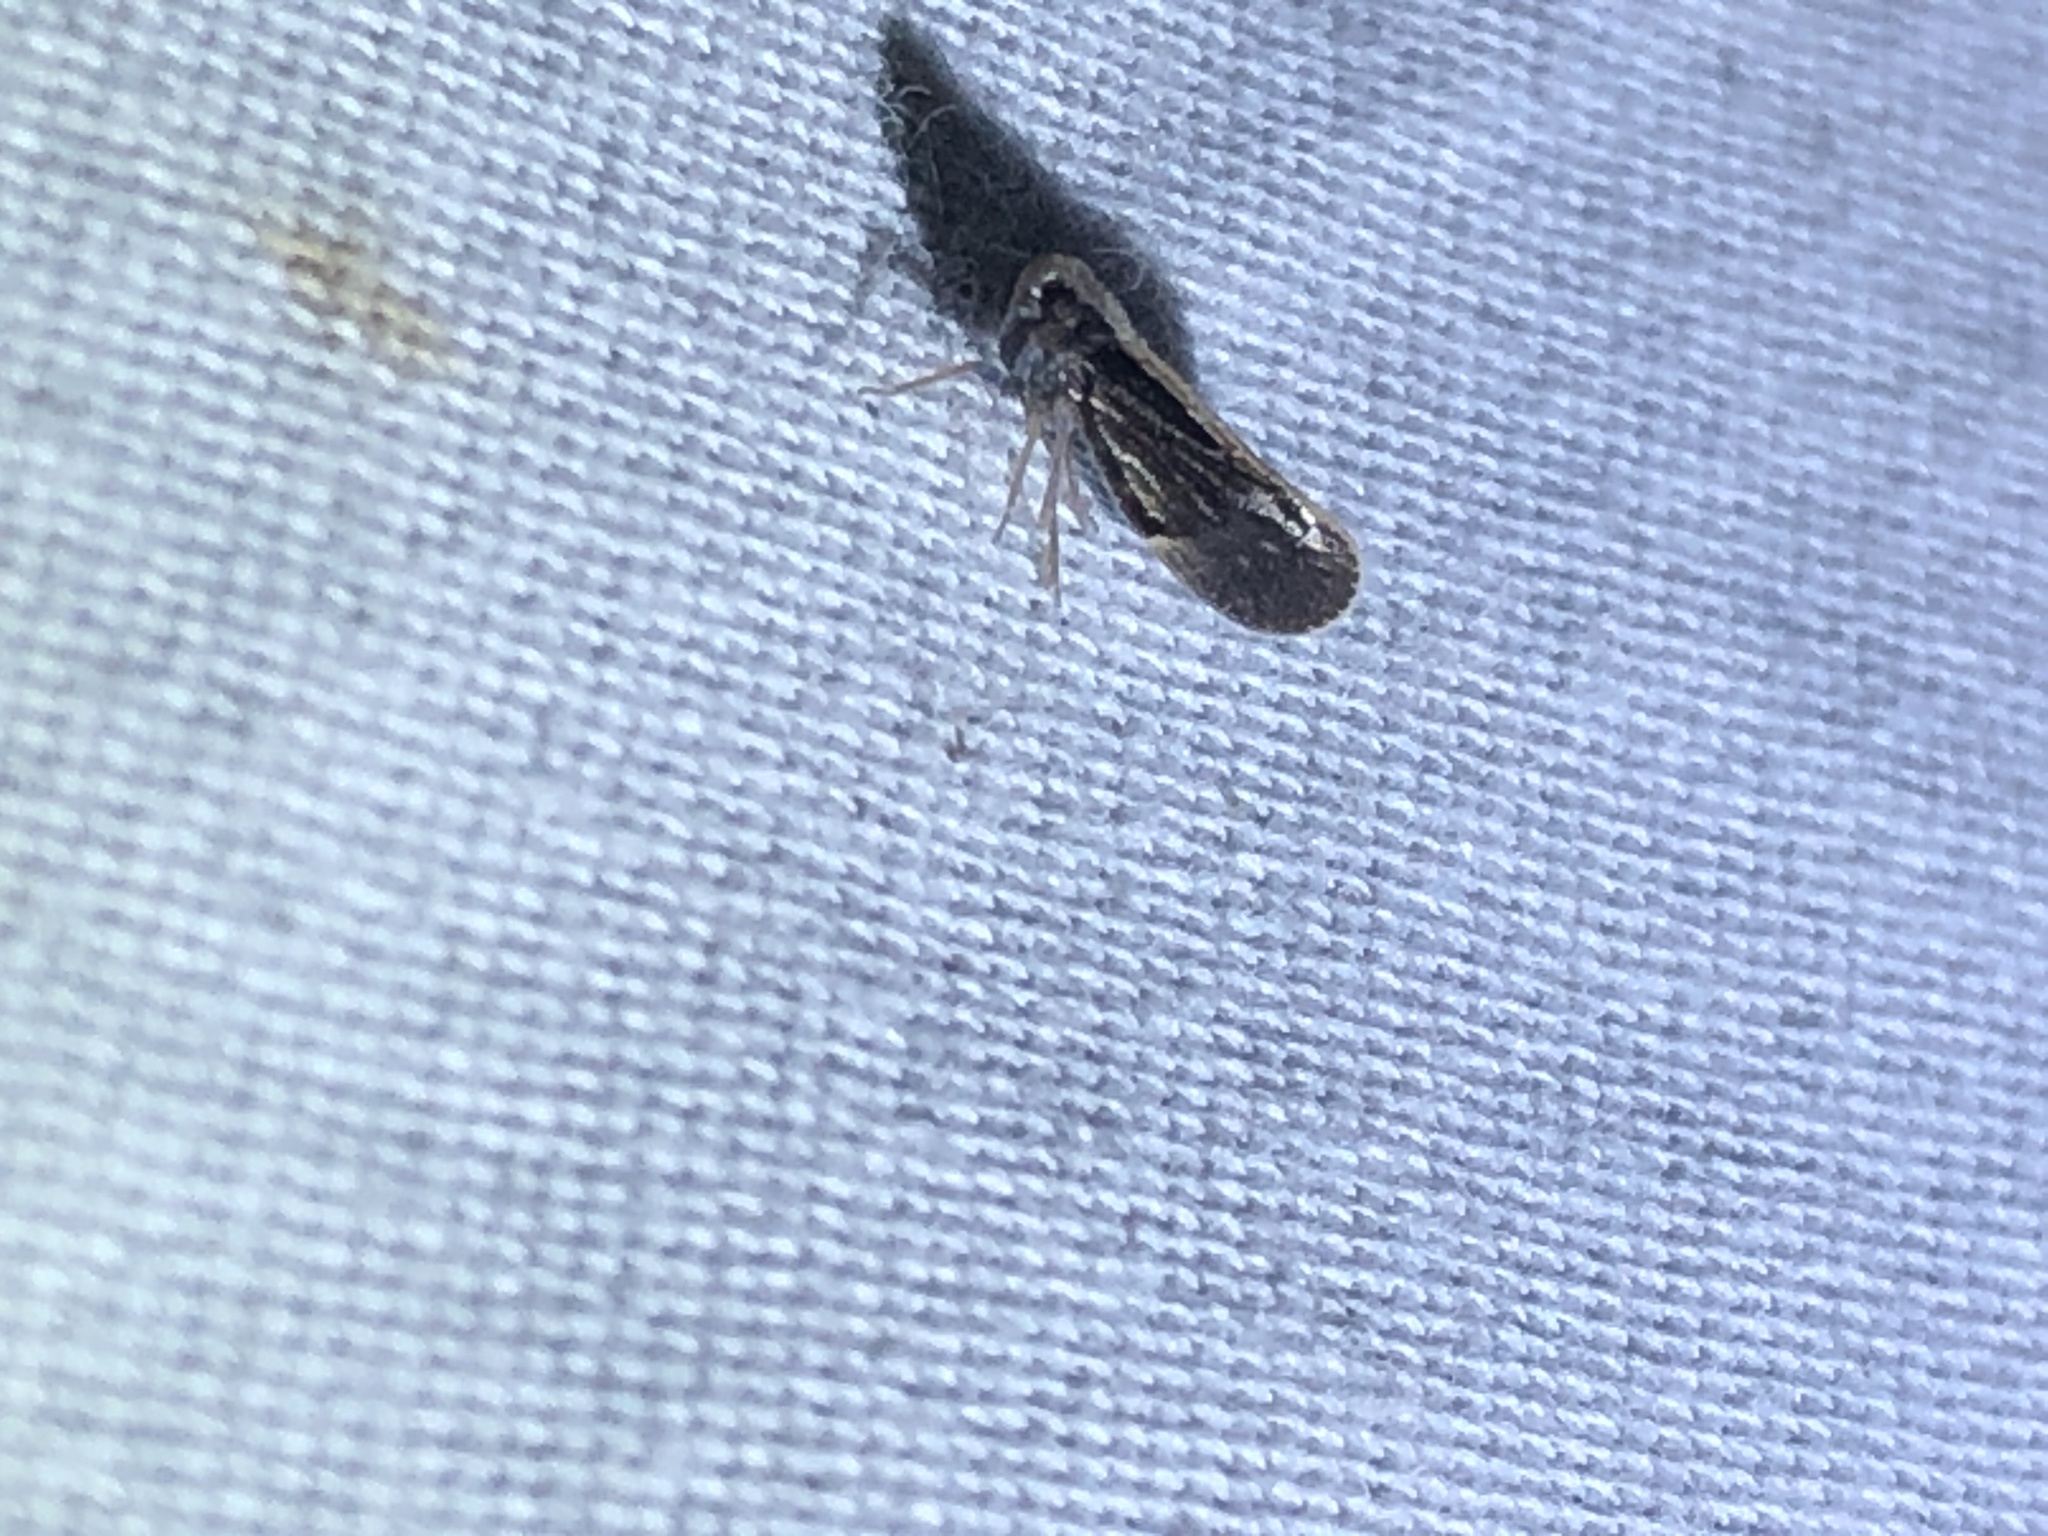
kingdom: Animalia
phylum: Arthropoda
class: Insecta
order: Hemiptera
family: Cixiidae
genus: Pintalia
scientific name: Pintalia delicata
